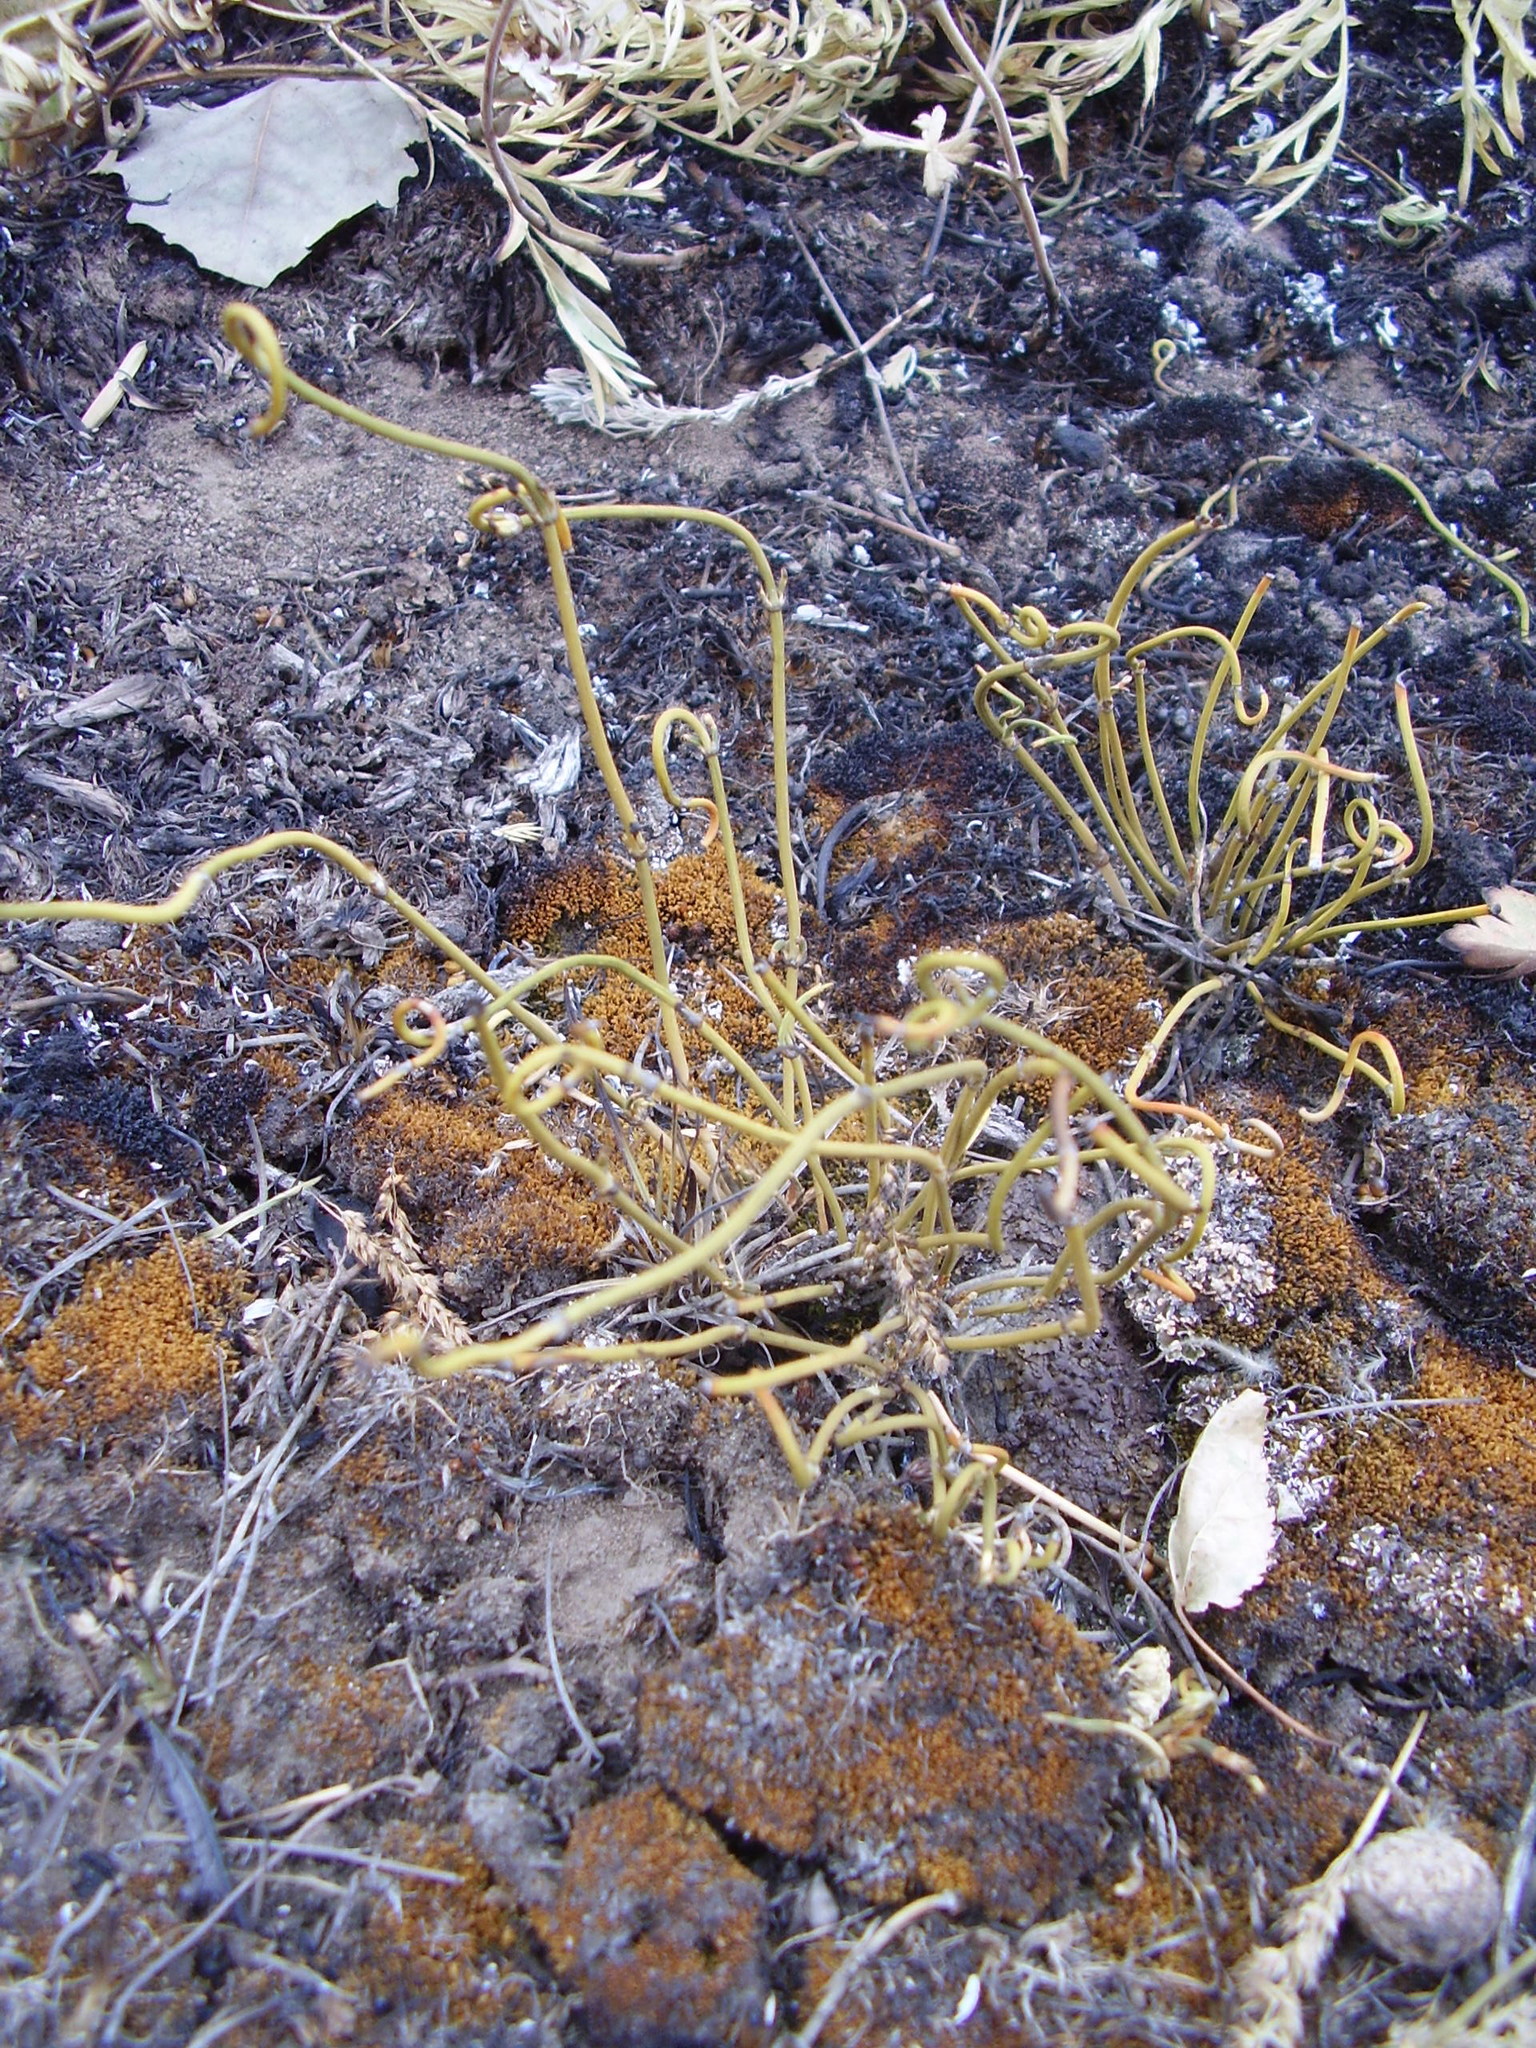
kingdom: Plantae
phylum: Tracheophyta
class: Gnetopsida
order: Ephedrales
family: Ephedraceae
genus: Ephedra
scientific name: Ephedra distachya
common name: Sea grape
